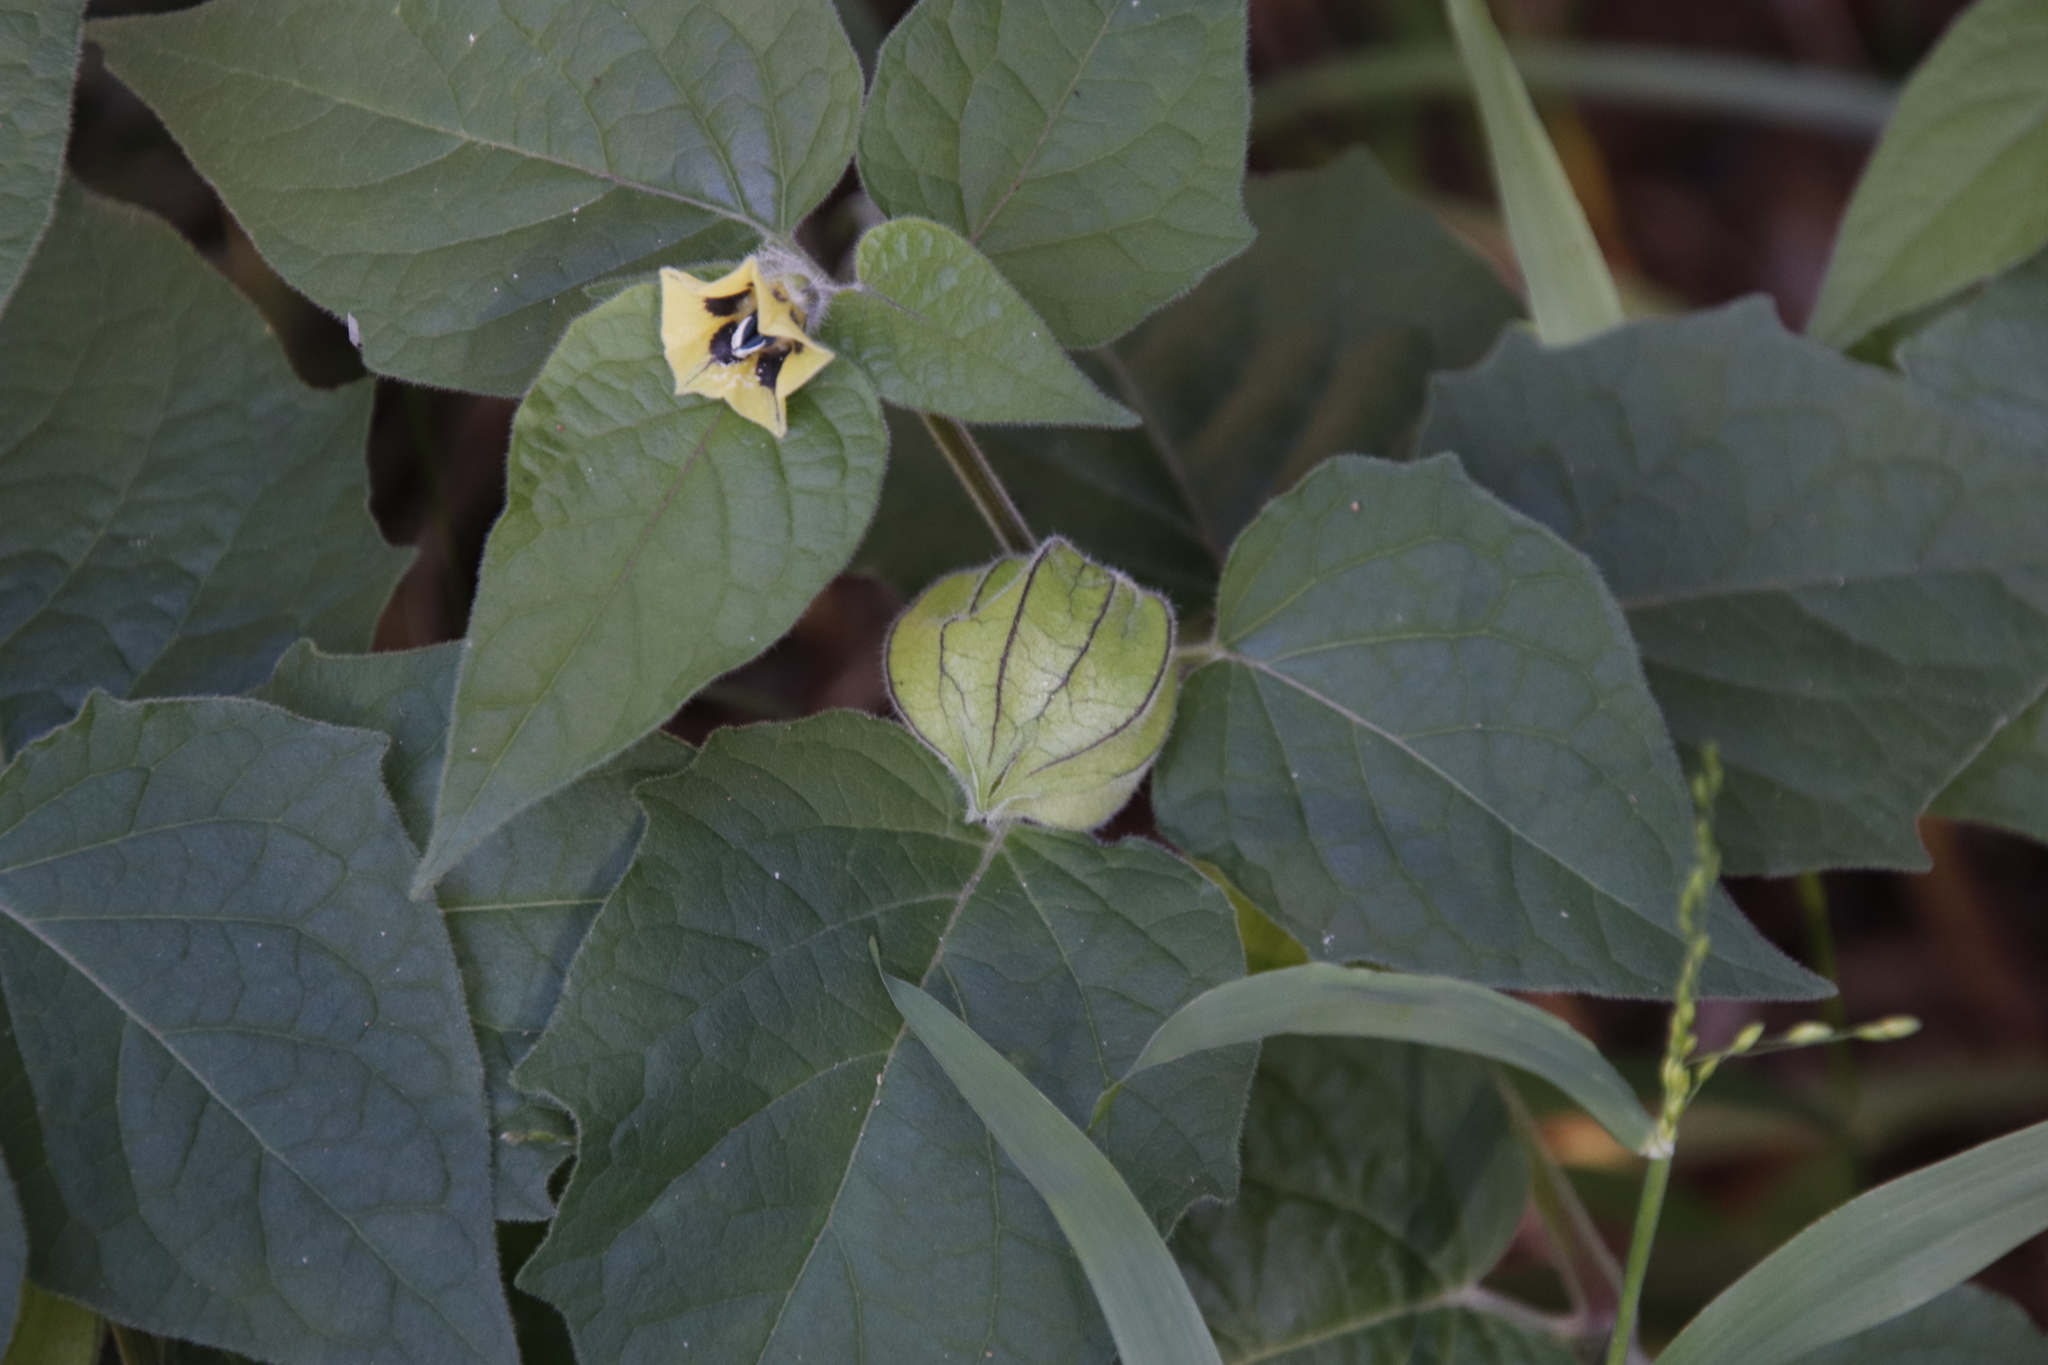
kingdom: Plantae
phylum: Tracheophyta
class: Magnoliopsida
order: Solanales
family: Solanaceae
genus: Physalis
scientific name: Physalis peruviana
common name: Cape-gooseberry
